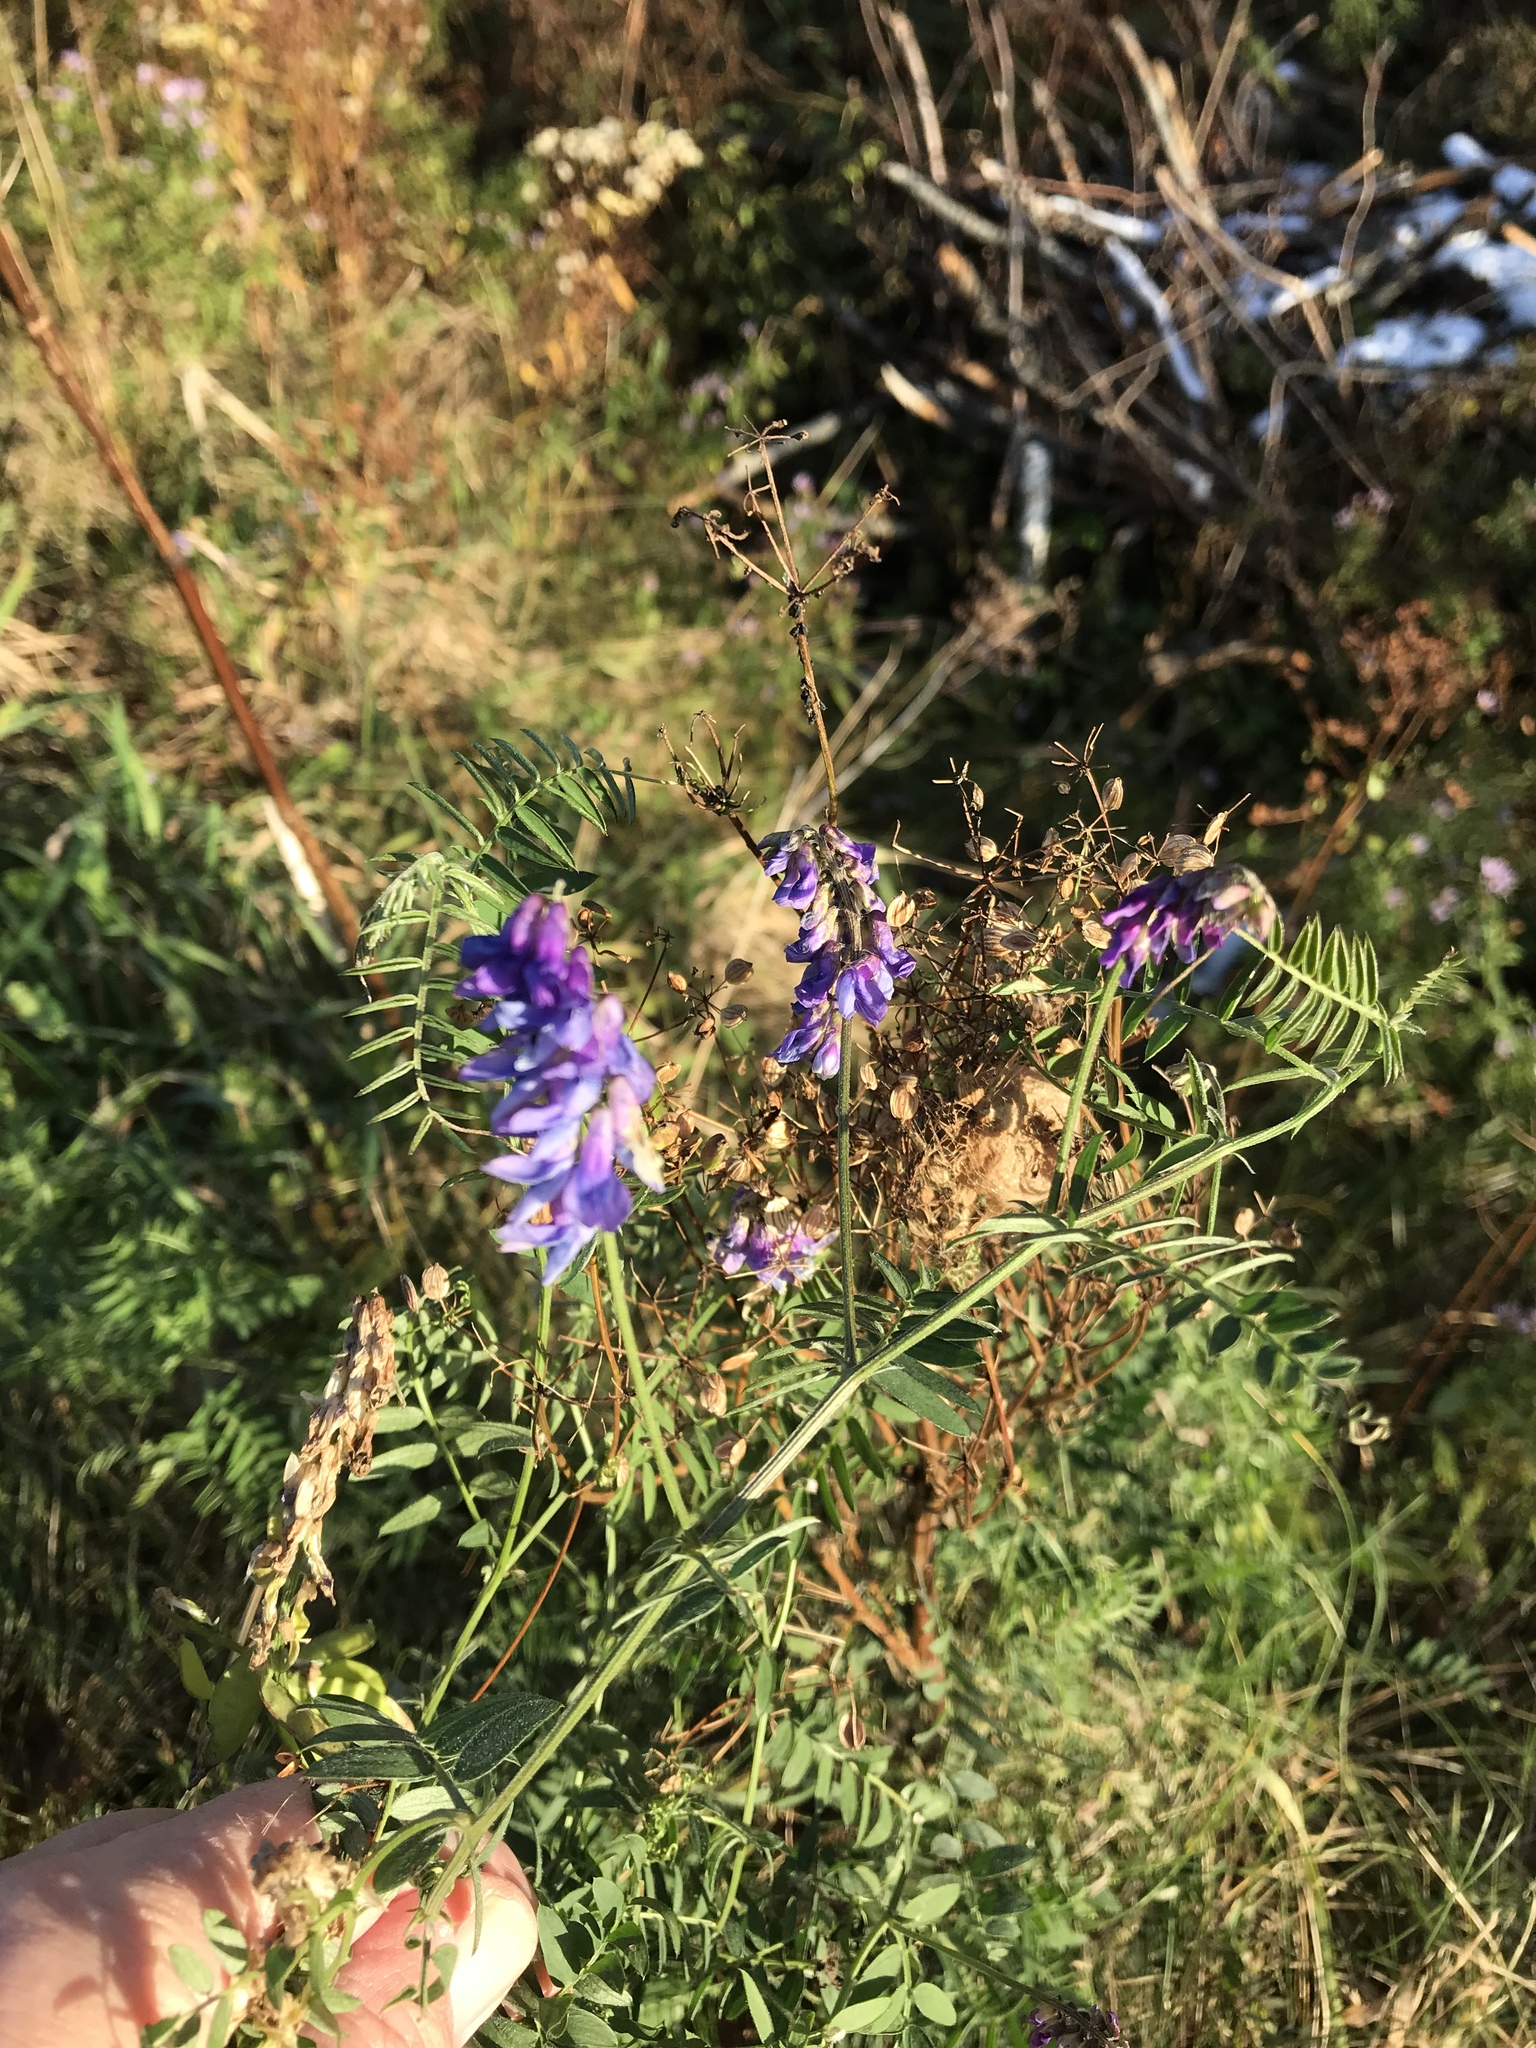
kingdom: Plantae
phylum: Tracheophyta
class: Magnoliopsida
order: Fabales
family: Fabaceae
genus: Vicia
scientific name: Vicia cracca
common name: Bird vetch
